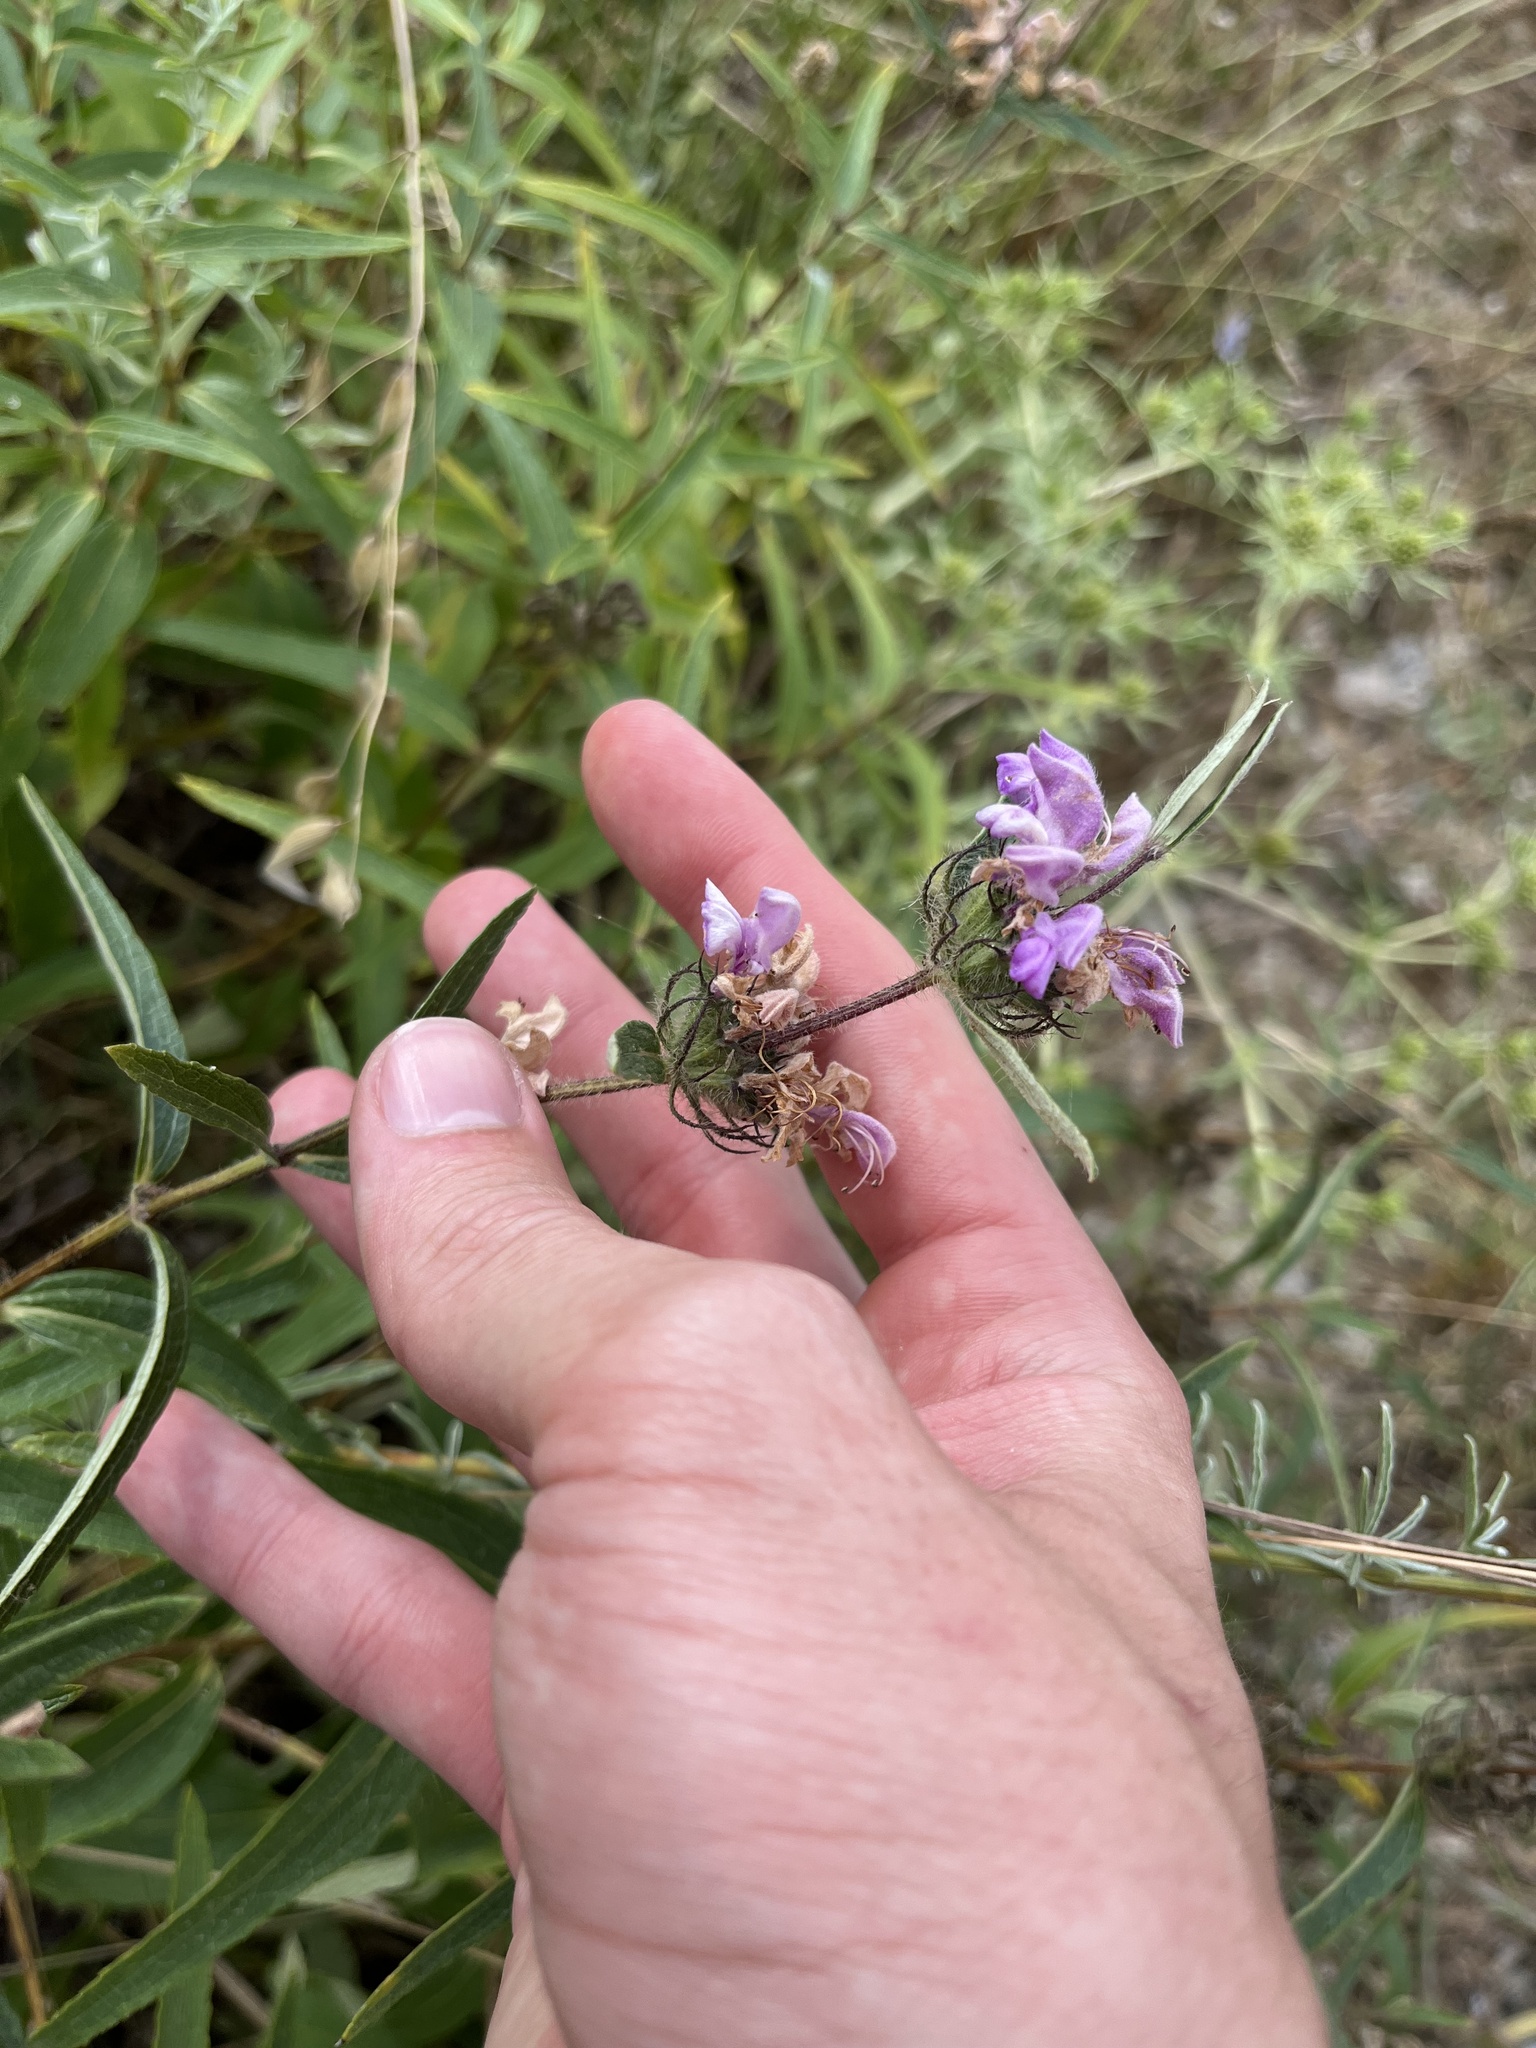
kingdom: Plantae
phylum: Tracheophyta
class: Magnoliopsida
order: Lamiales
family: Lamiaceae
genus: Phlomis
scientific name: Phlomis herba-venti
